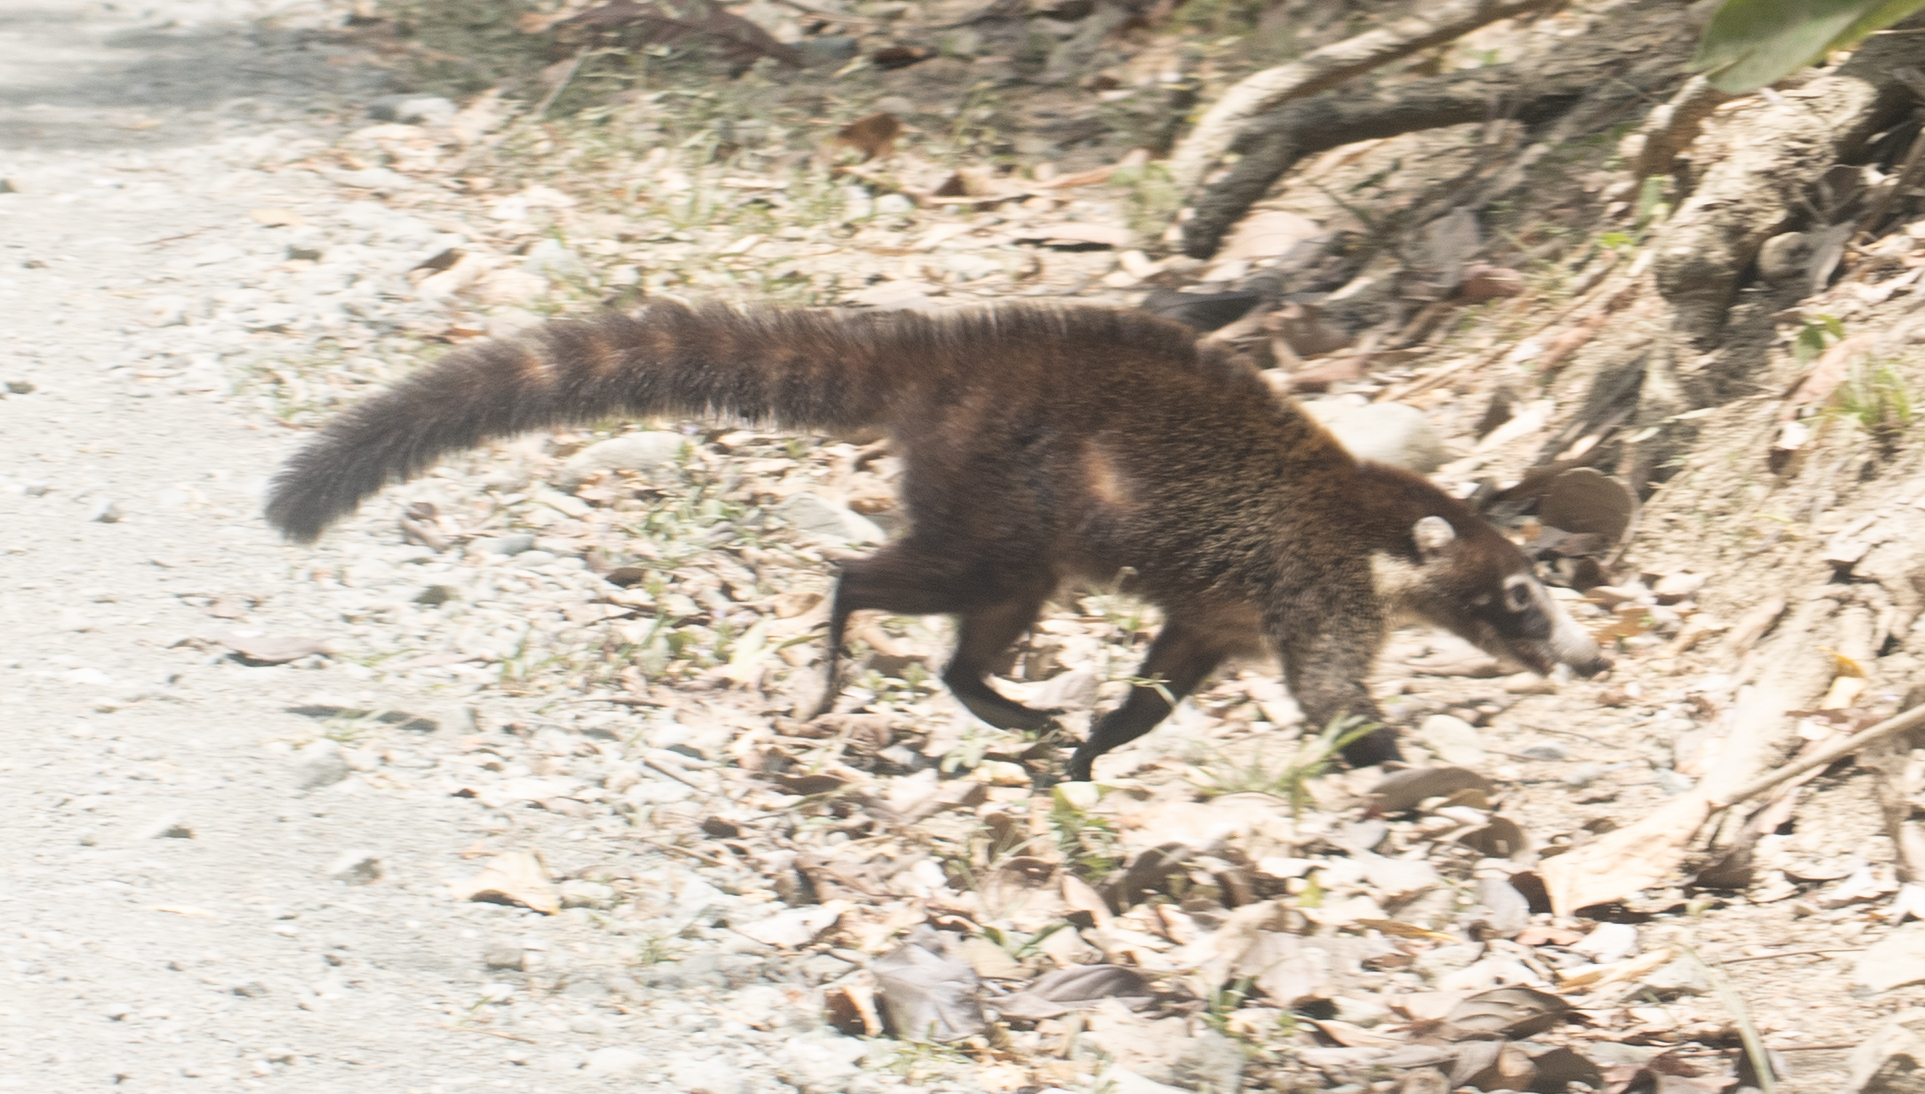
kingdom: Animalia
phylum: Chordata
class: Mammalia
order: Carnivora
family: Procyonidae
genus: Nasua
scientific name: Nasua narica
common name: White-nosed coati
